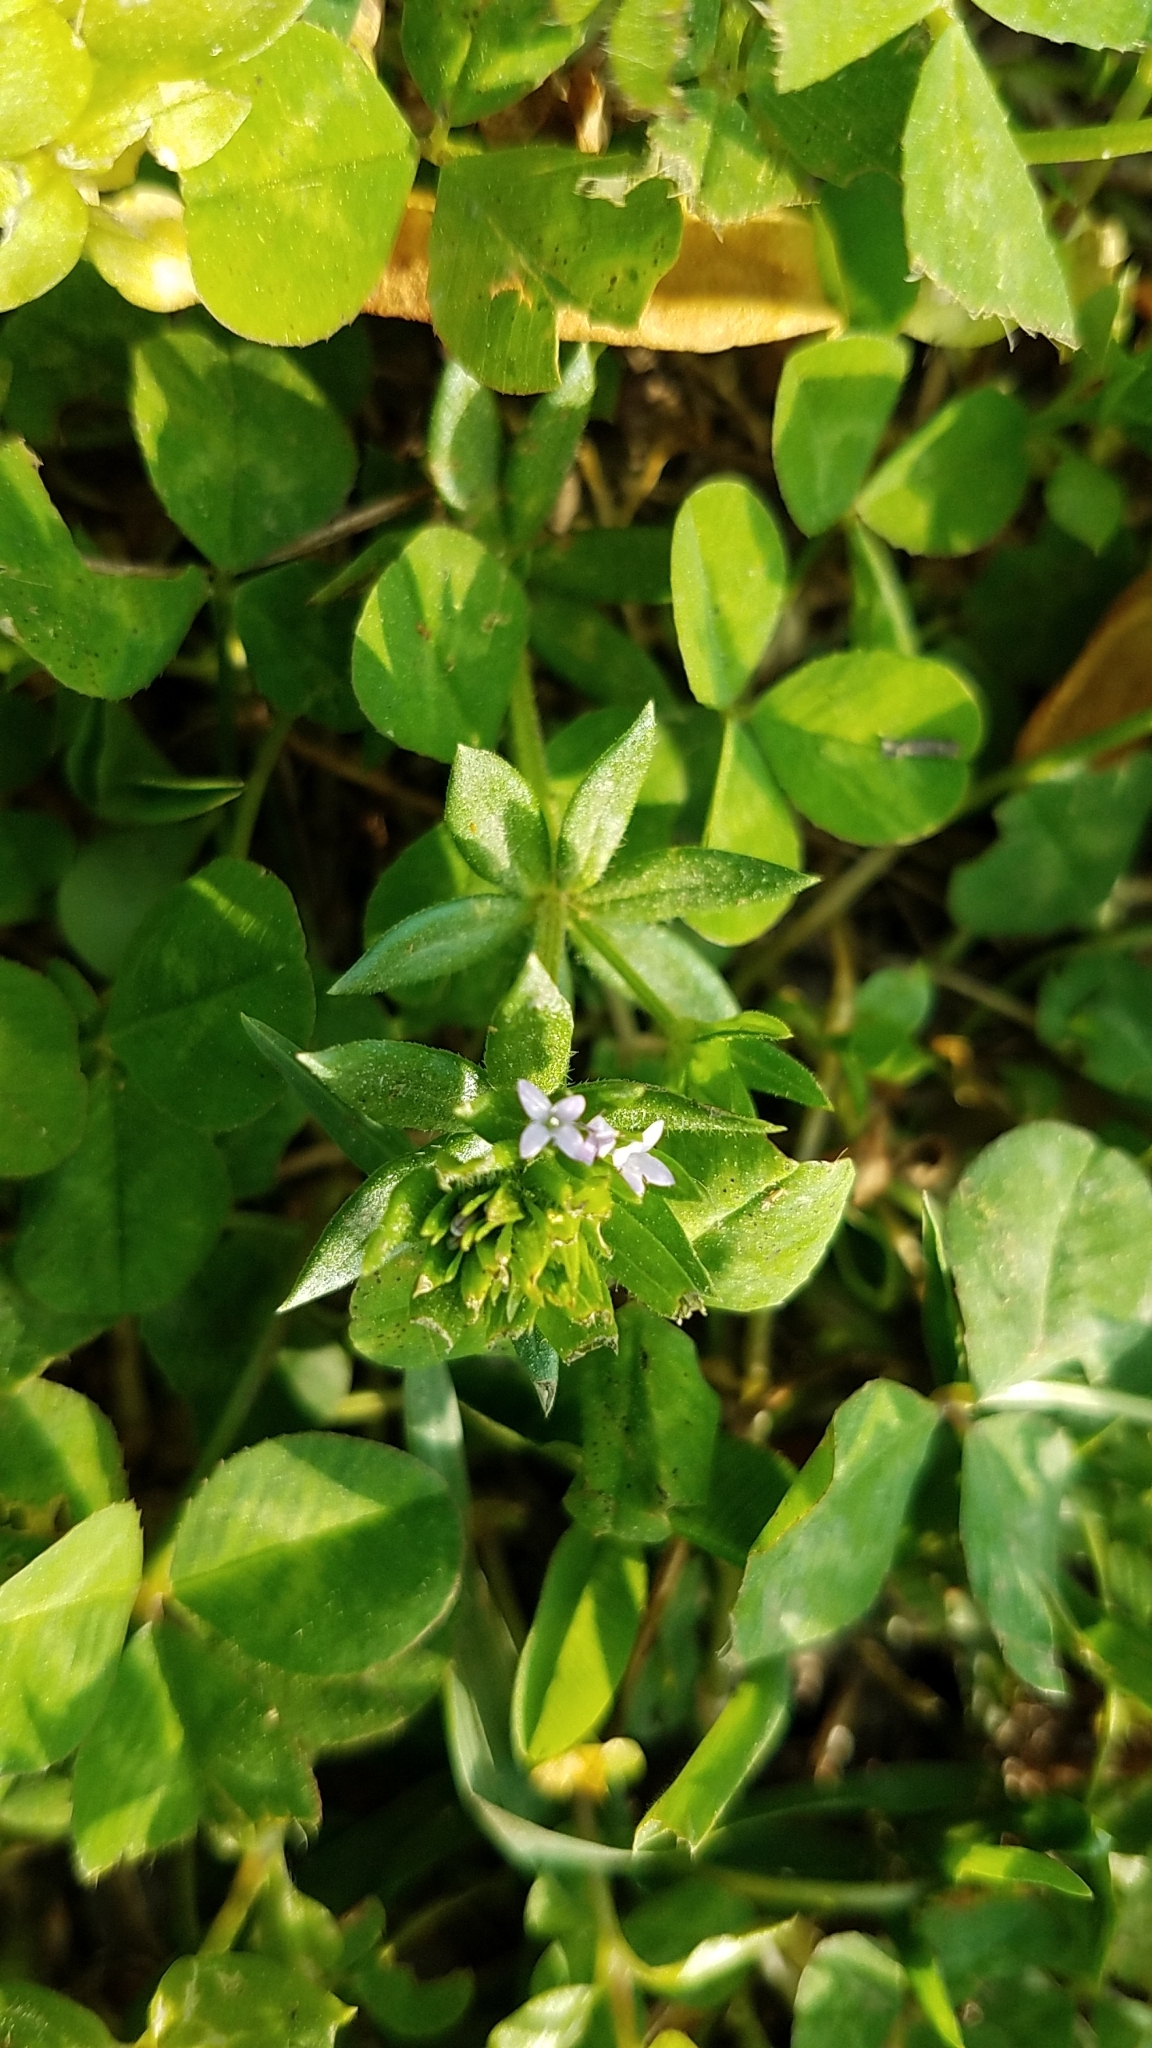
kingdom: Plantae
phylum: Tracheophyta
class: Magnoliopsida
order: Gentianales
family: Rubiaceae
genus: Sherardia
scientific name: Sherardia arvensis
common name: Field madder
